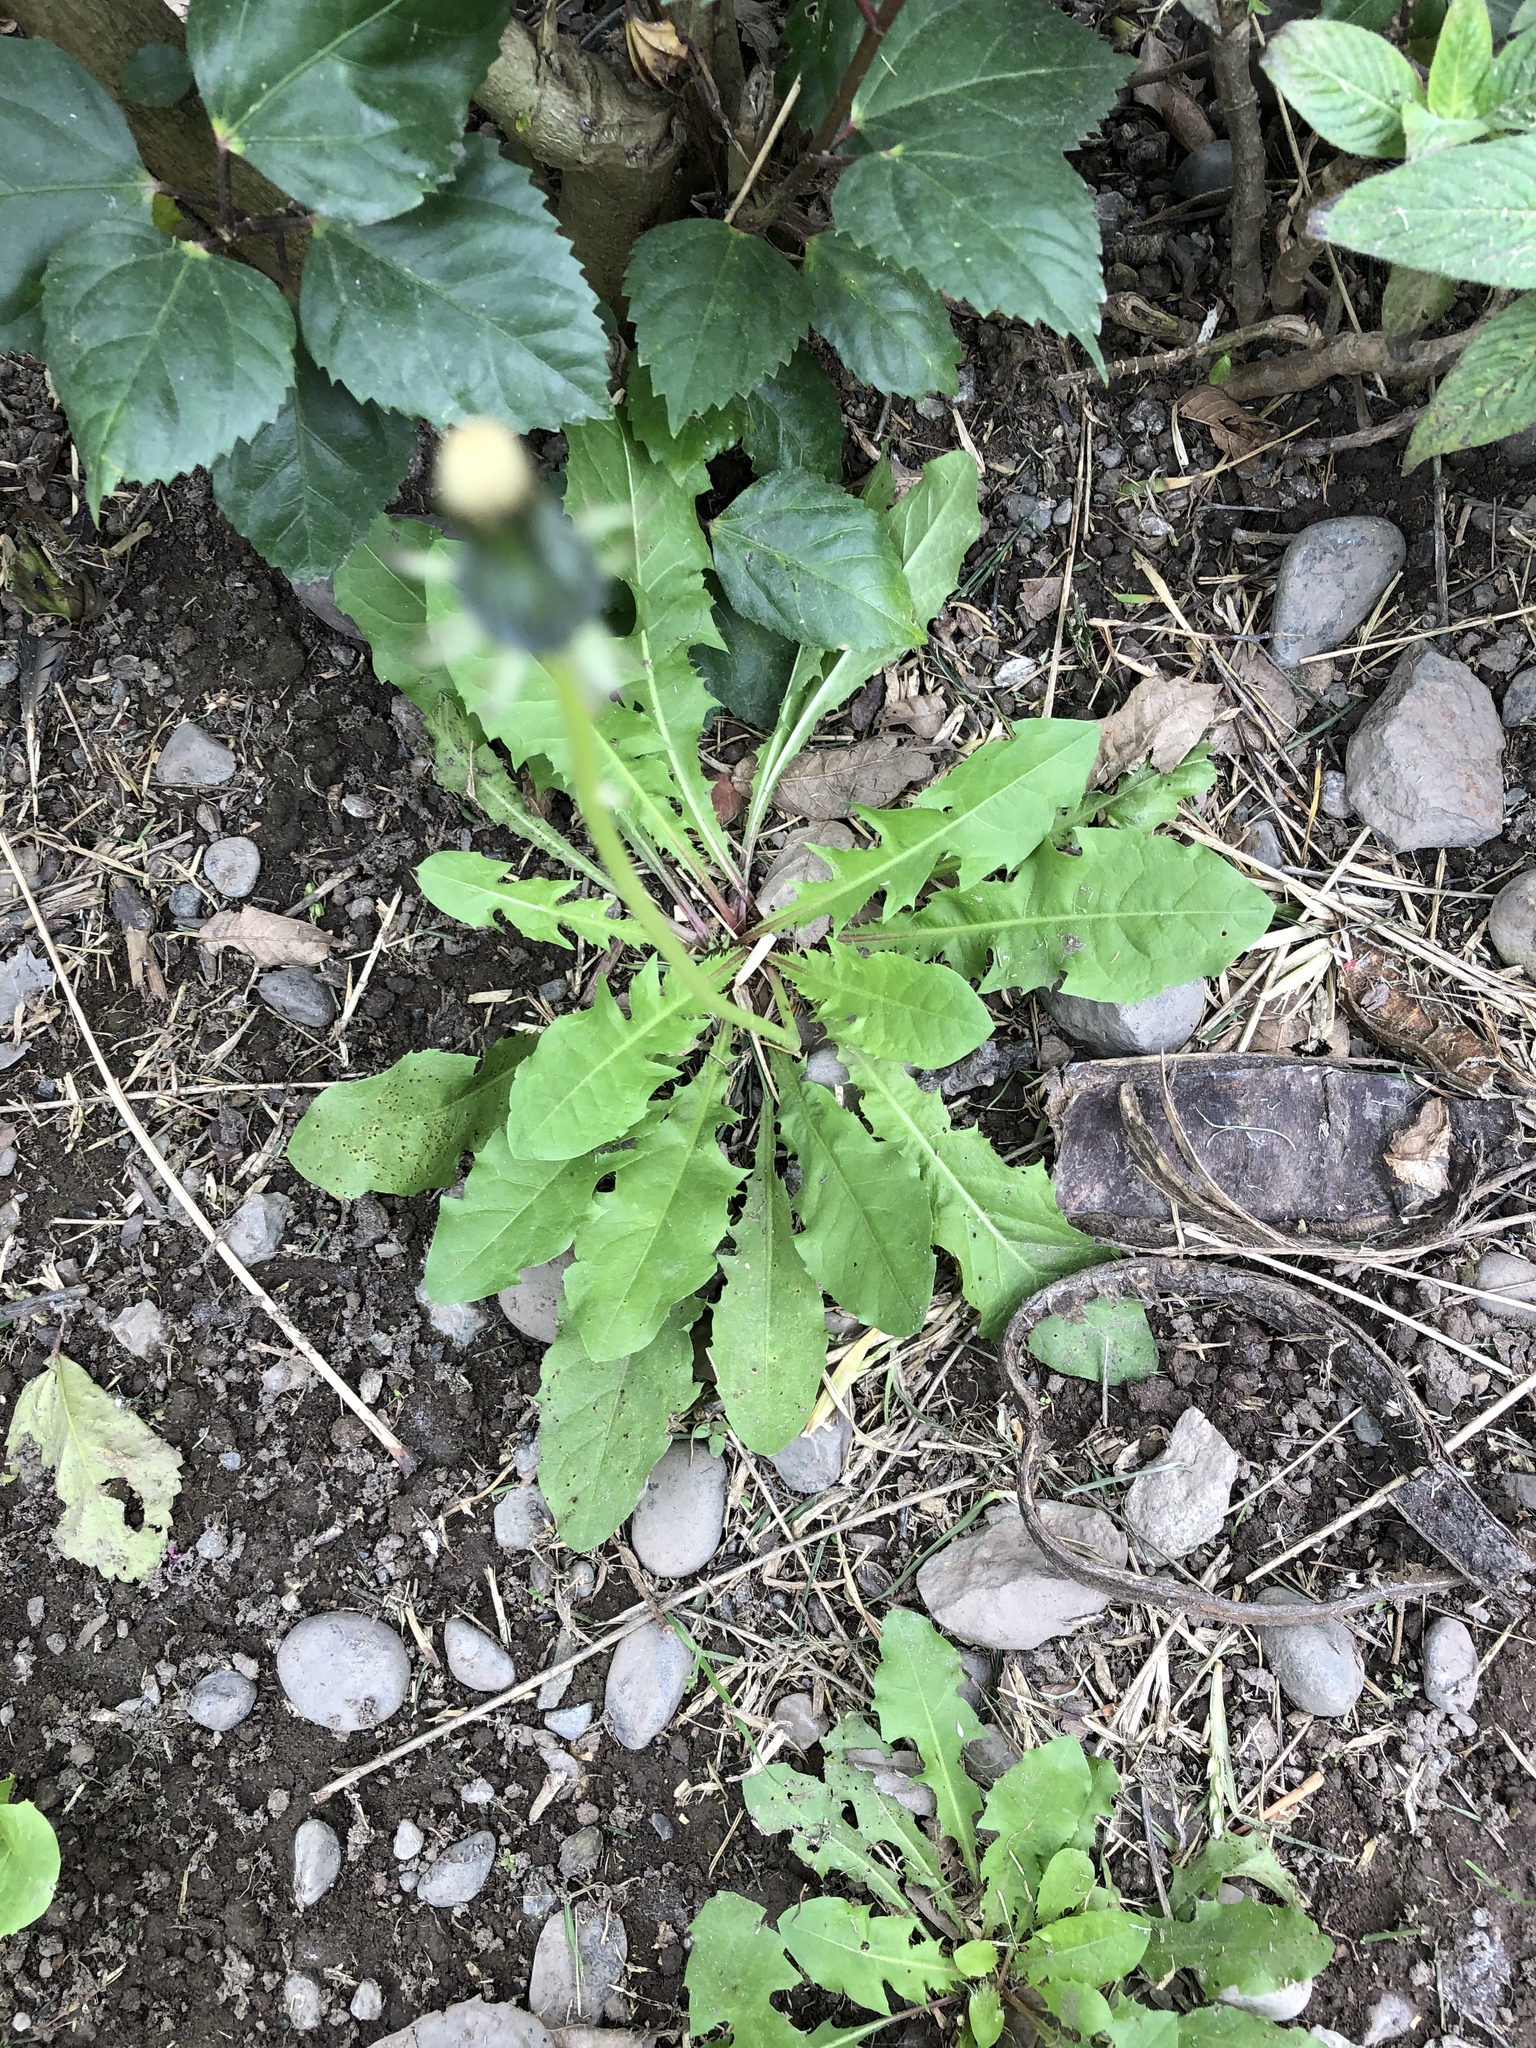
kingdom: Plantae
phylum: Tracheophyta
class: Magnoliopsida
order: Asterales
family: Asteraceae
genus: Taraxacum
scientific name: Taraxacum officinale
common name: Common dandelion
